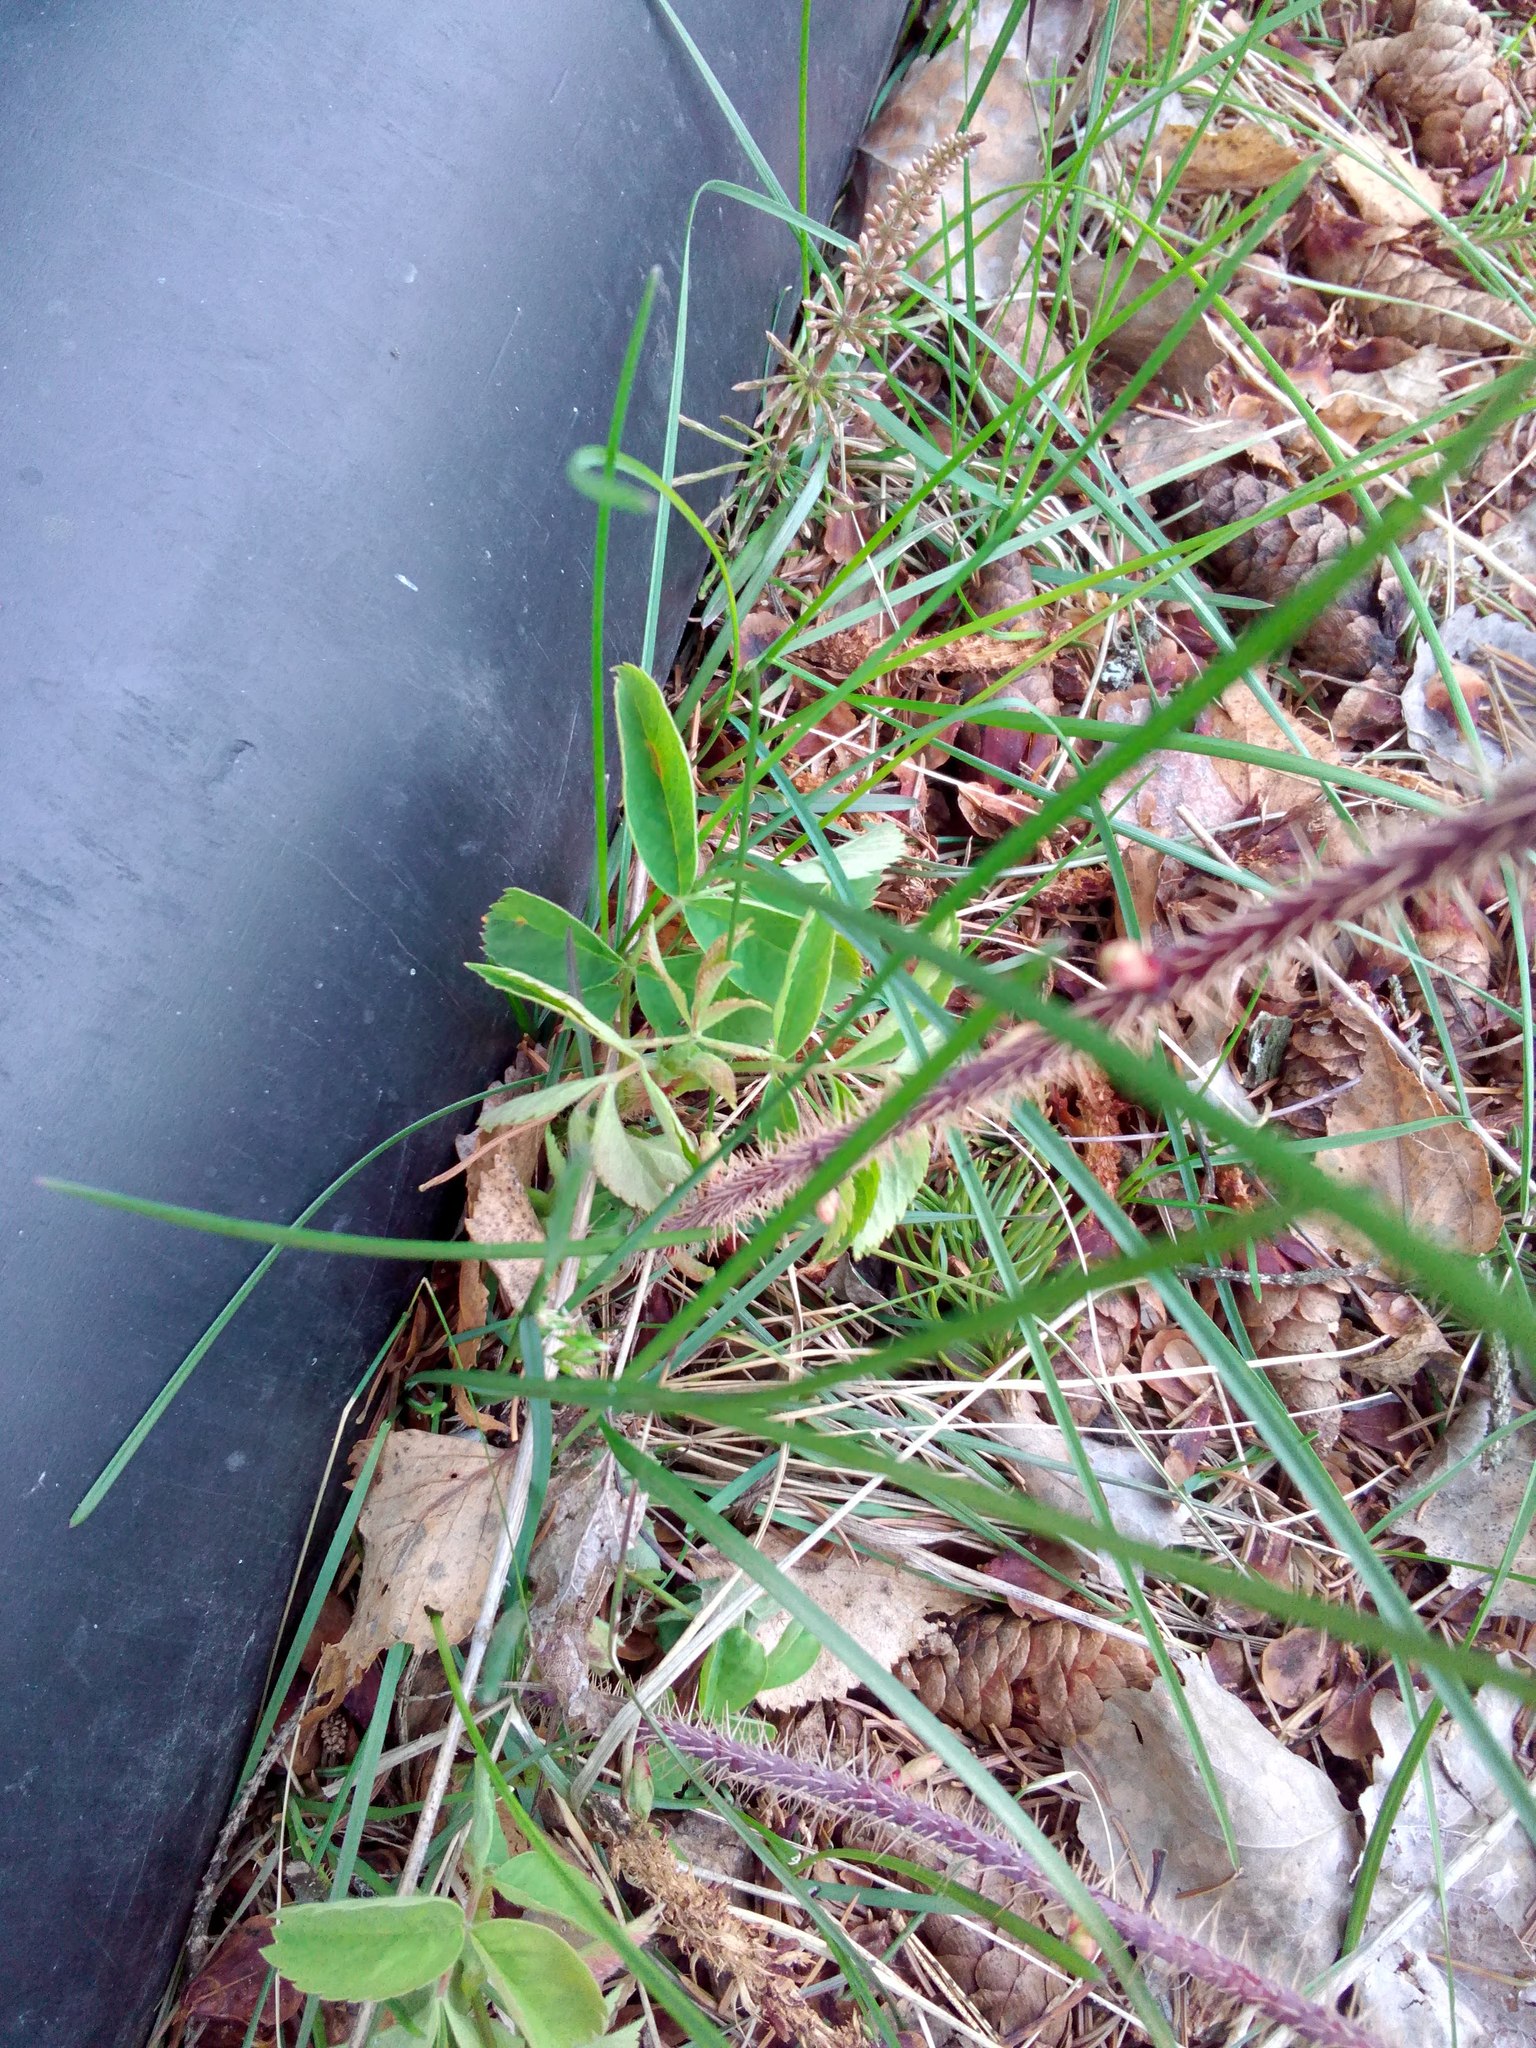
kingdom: Plantae
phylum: Tracheophyta
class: Magnoliopsida
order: Rosales
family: Rosaceae
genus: Rosa
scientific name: Rosa acicularis
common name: Prickly rose
